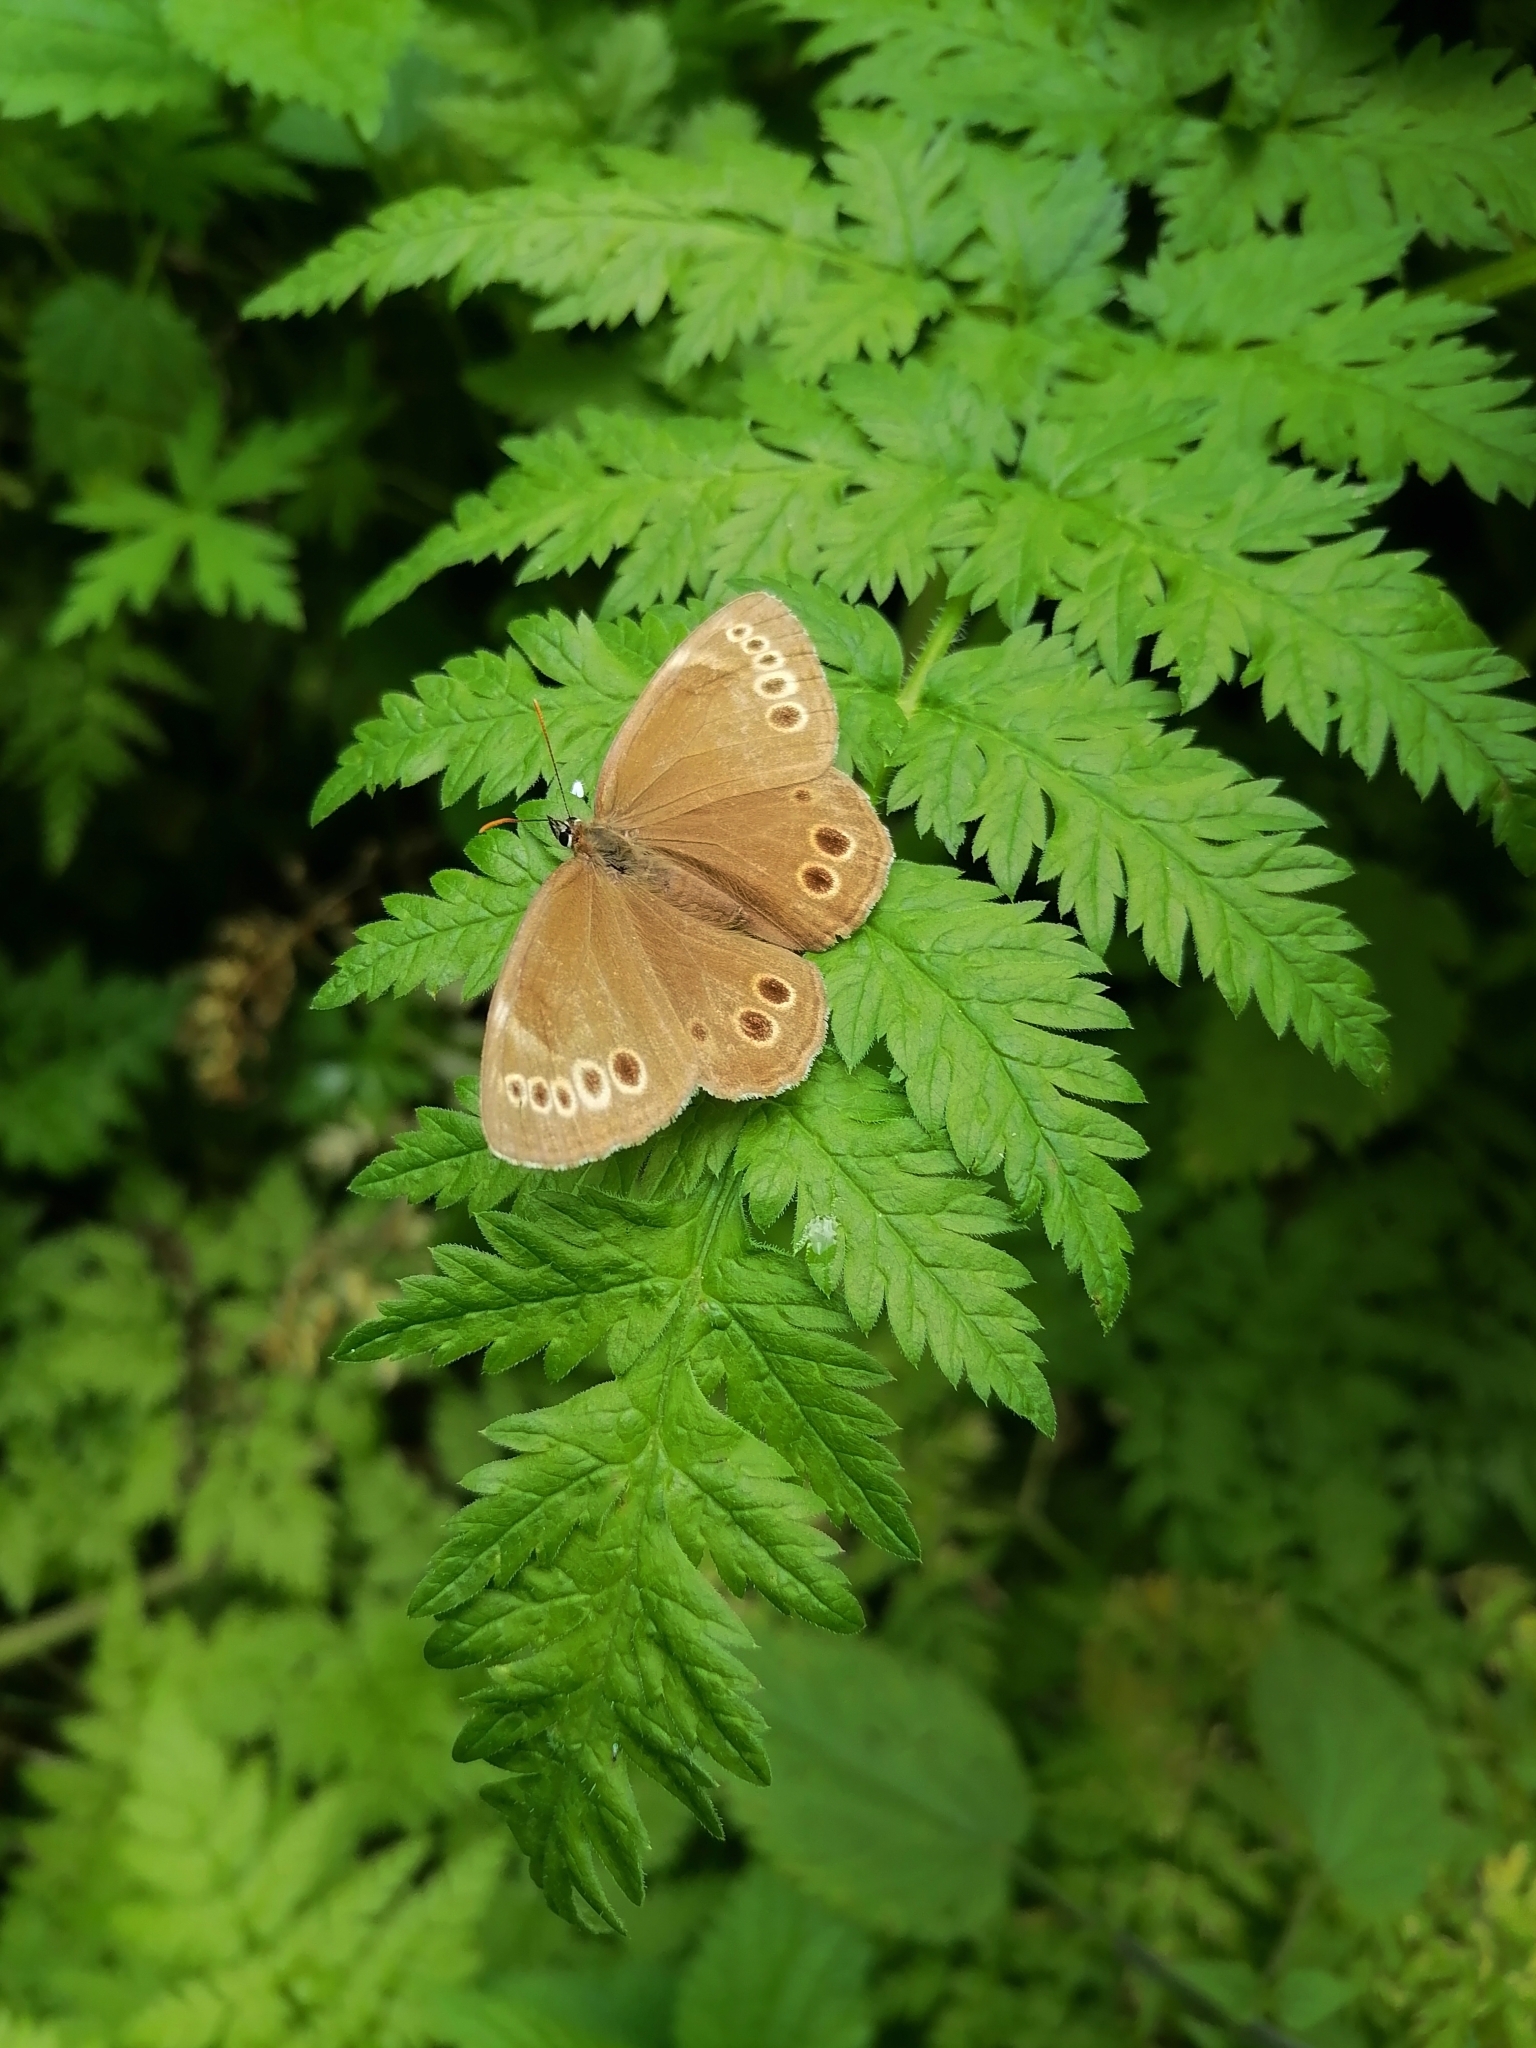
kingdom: Animalia
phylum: Arthropoda
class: Insecta
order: Lepidoptera
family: Nymphalidae
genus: Pararge
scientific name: Pararge Lopinga achine
